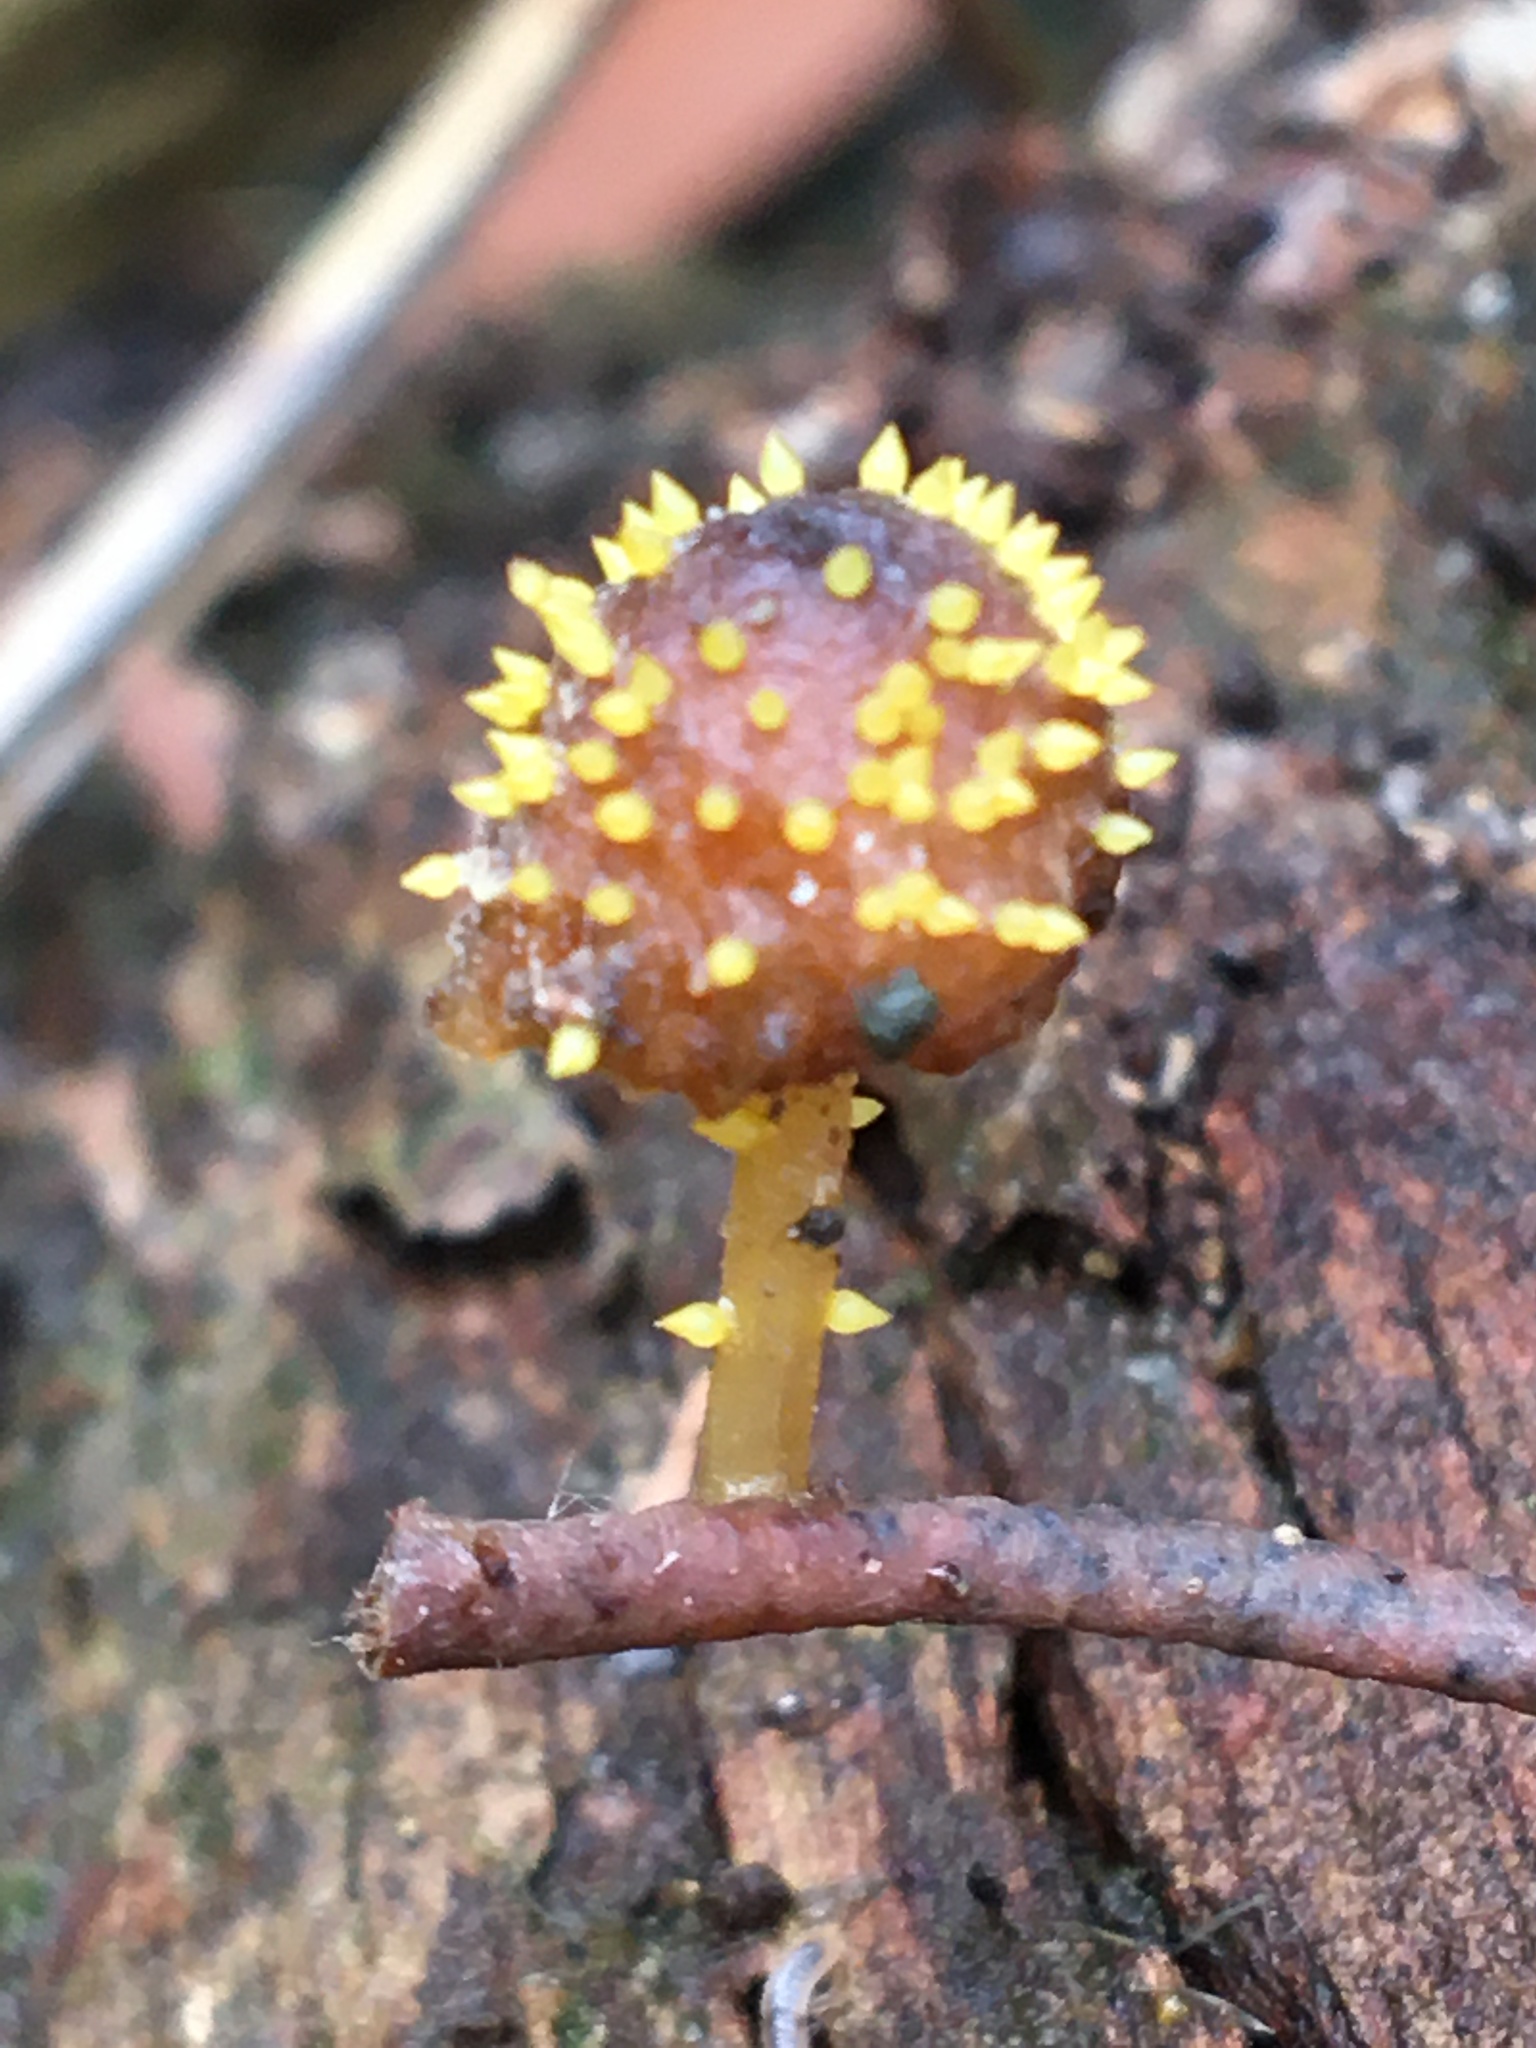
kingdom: Fungi
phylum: Ascomycota
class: Sordariomycetes
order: Hypocreales
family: Clavicipitaceae
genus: Neobarya
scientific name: Neobarya agaricicola
